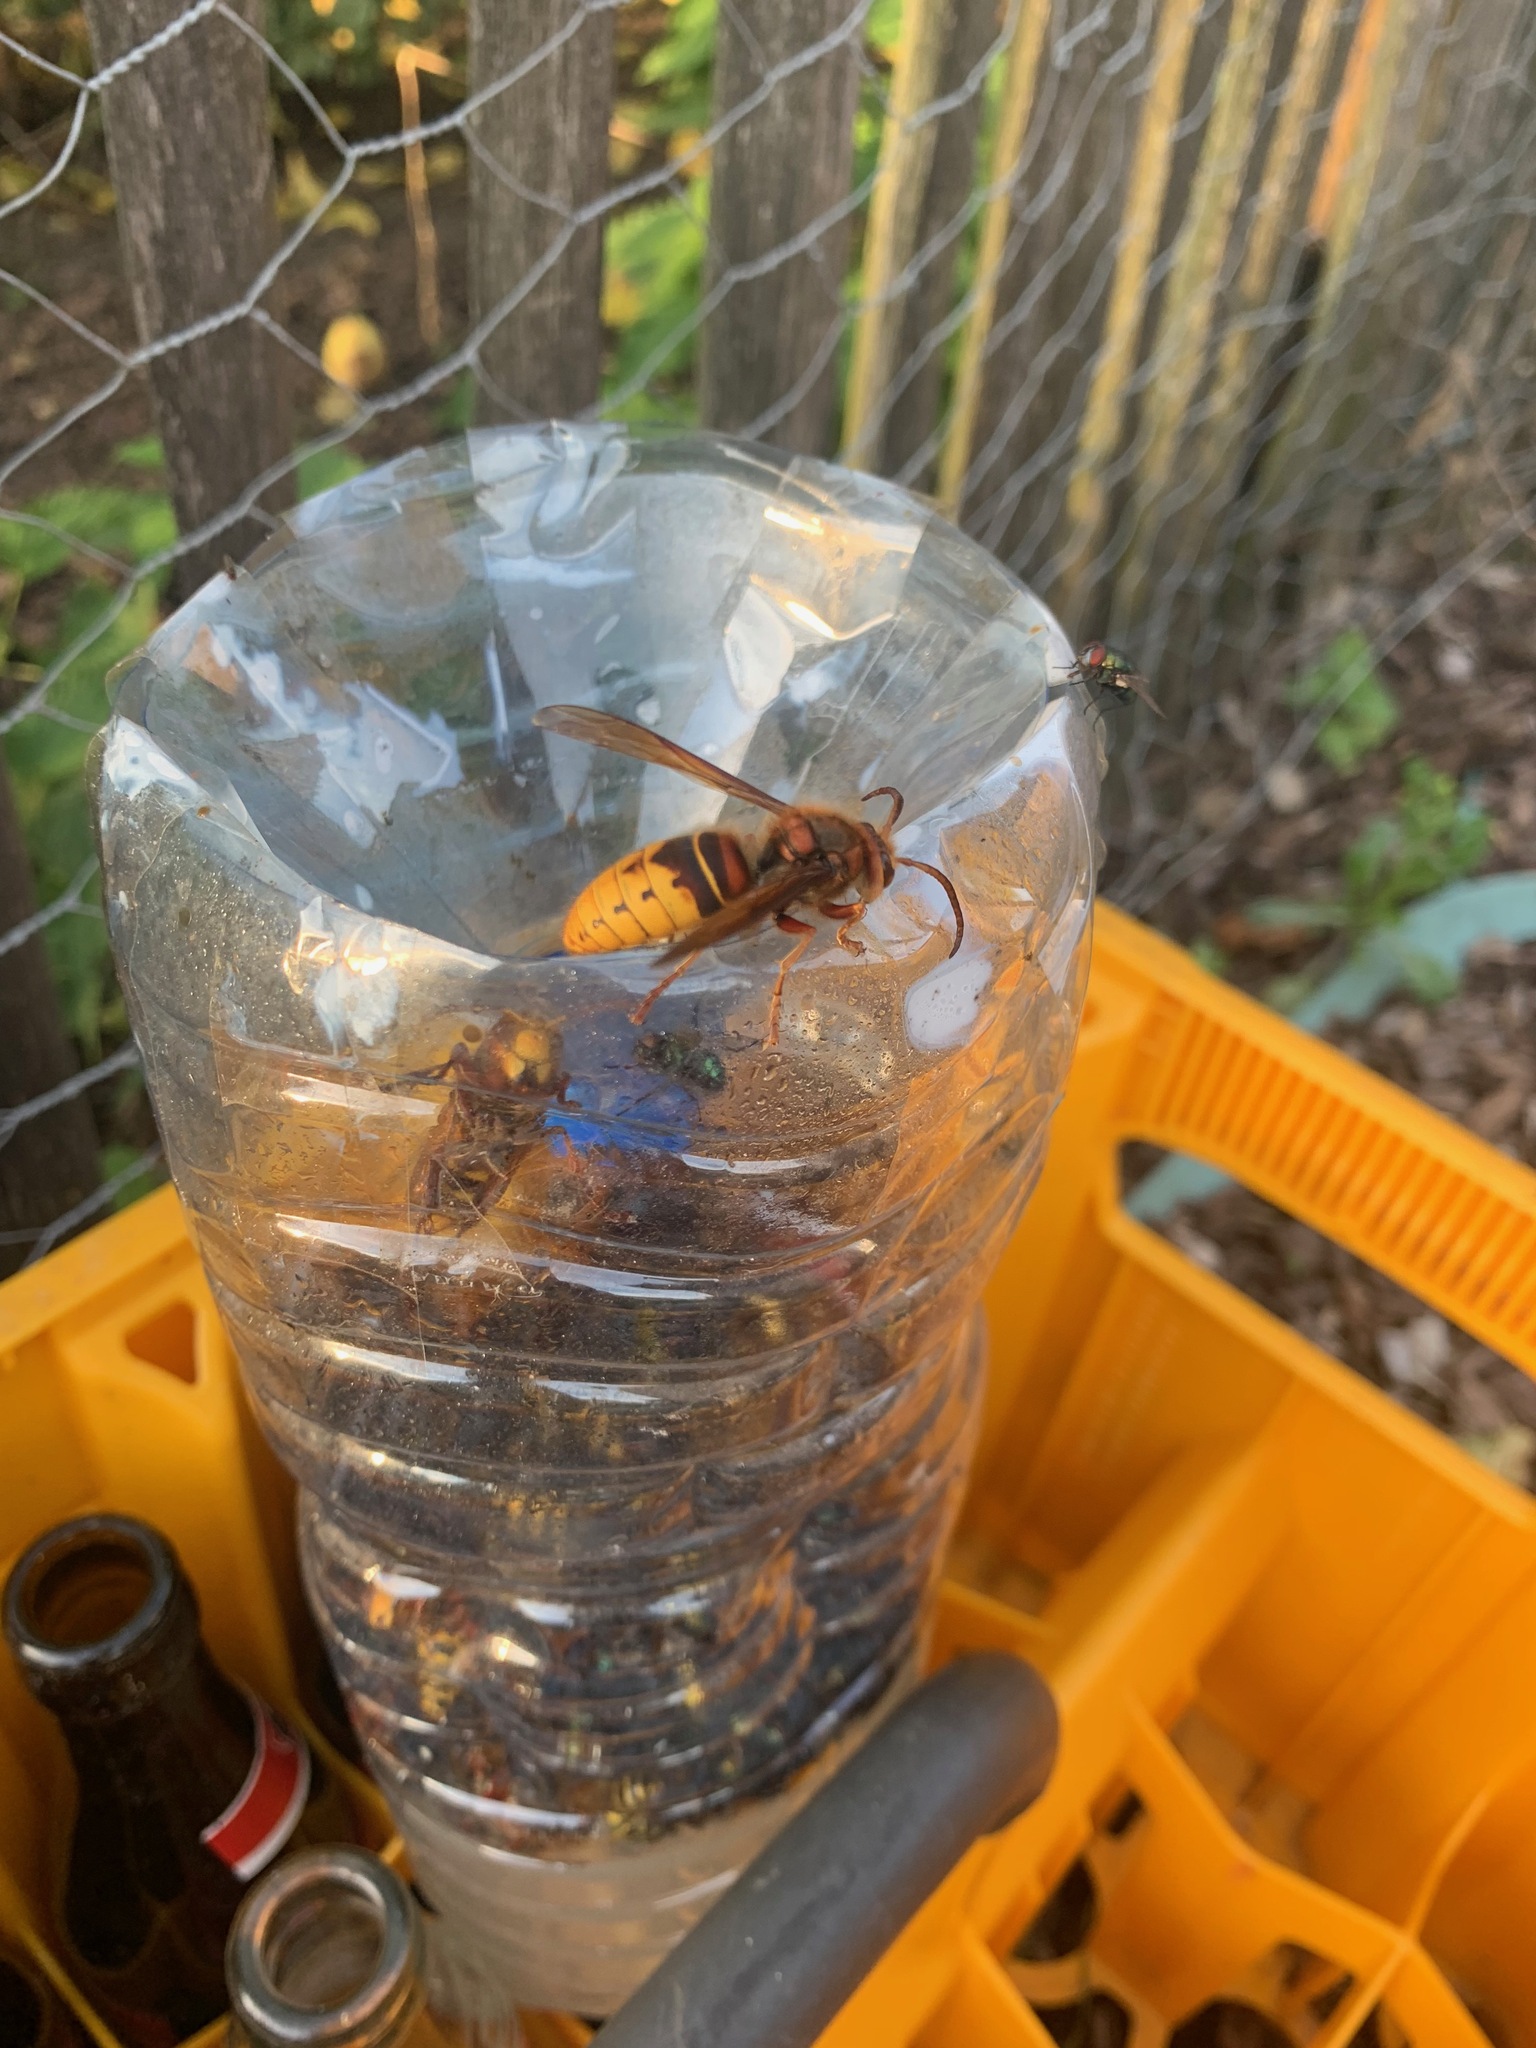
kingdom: Animalia
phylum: Arthropoda
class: Insecta
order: Hymenoptera
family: Vespidae
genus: Vespa
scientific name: Vespa crabro
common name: Hornet
